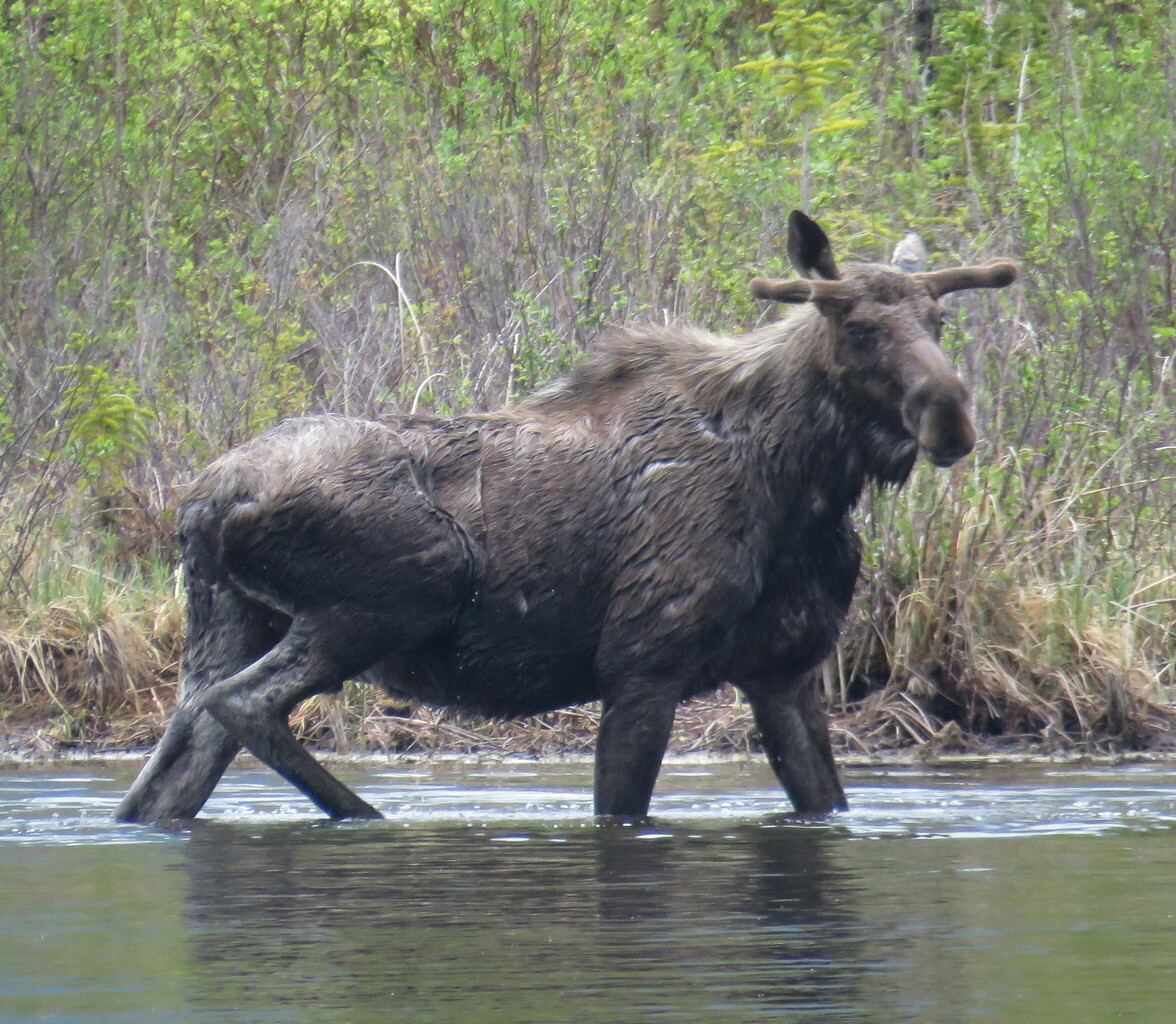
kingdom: Animalia
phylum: Chordata
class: Mammalia
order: Artiodactyla
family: Cervidae
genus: Alces
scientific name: Alces alces
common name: Moose
